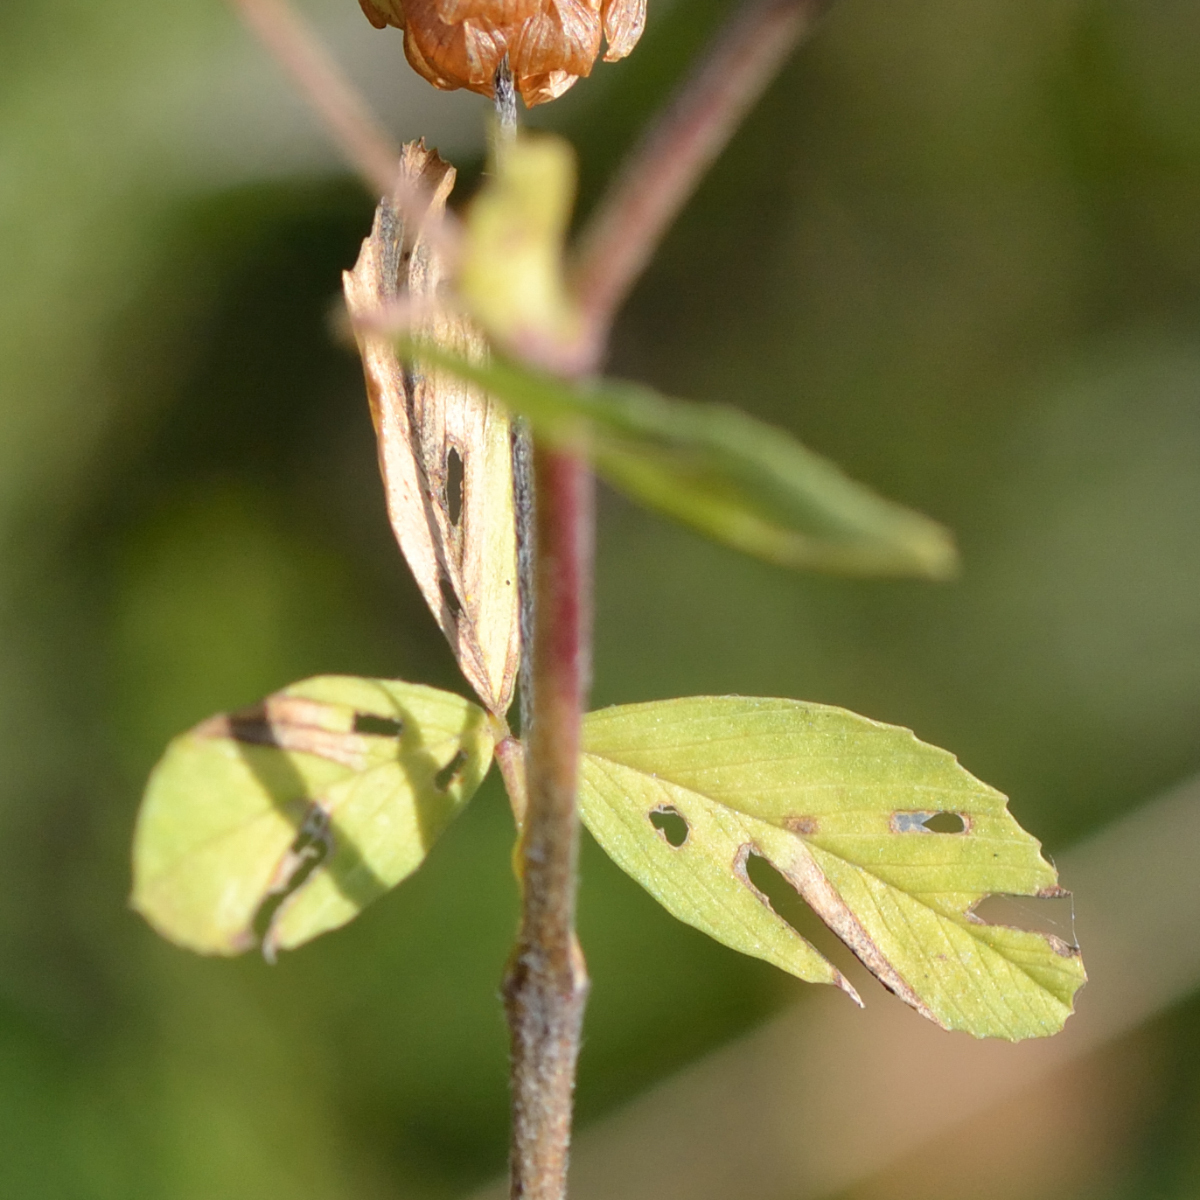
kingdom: Plantae
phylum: Tracheophyta
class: Magnoliopsida
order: Fabales
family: Fabaceae
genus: Trifolium
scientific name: Trifolium aureum
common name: Golden clover
